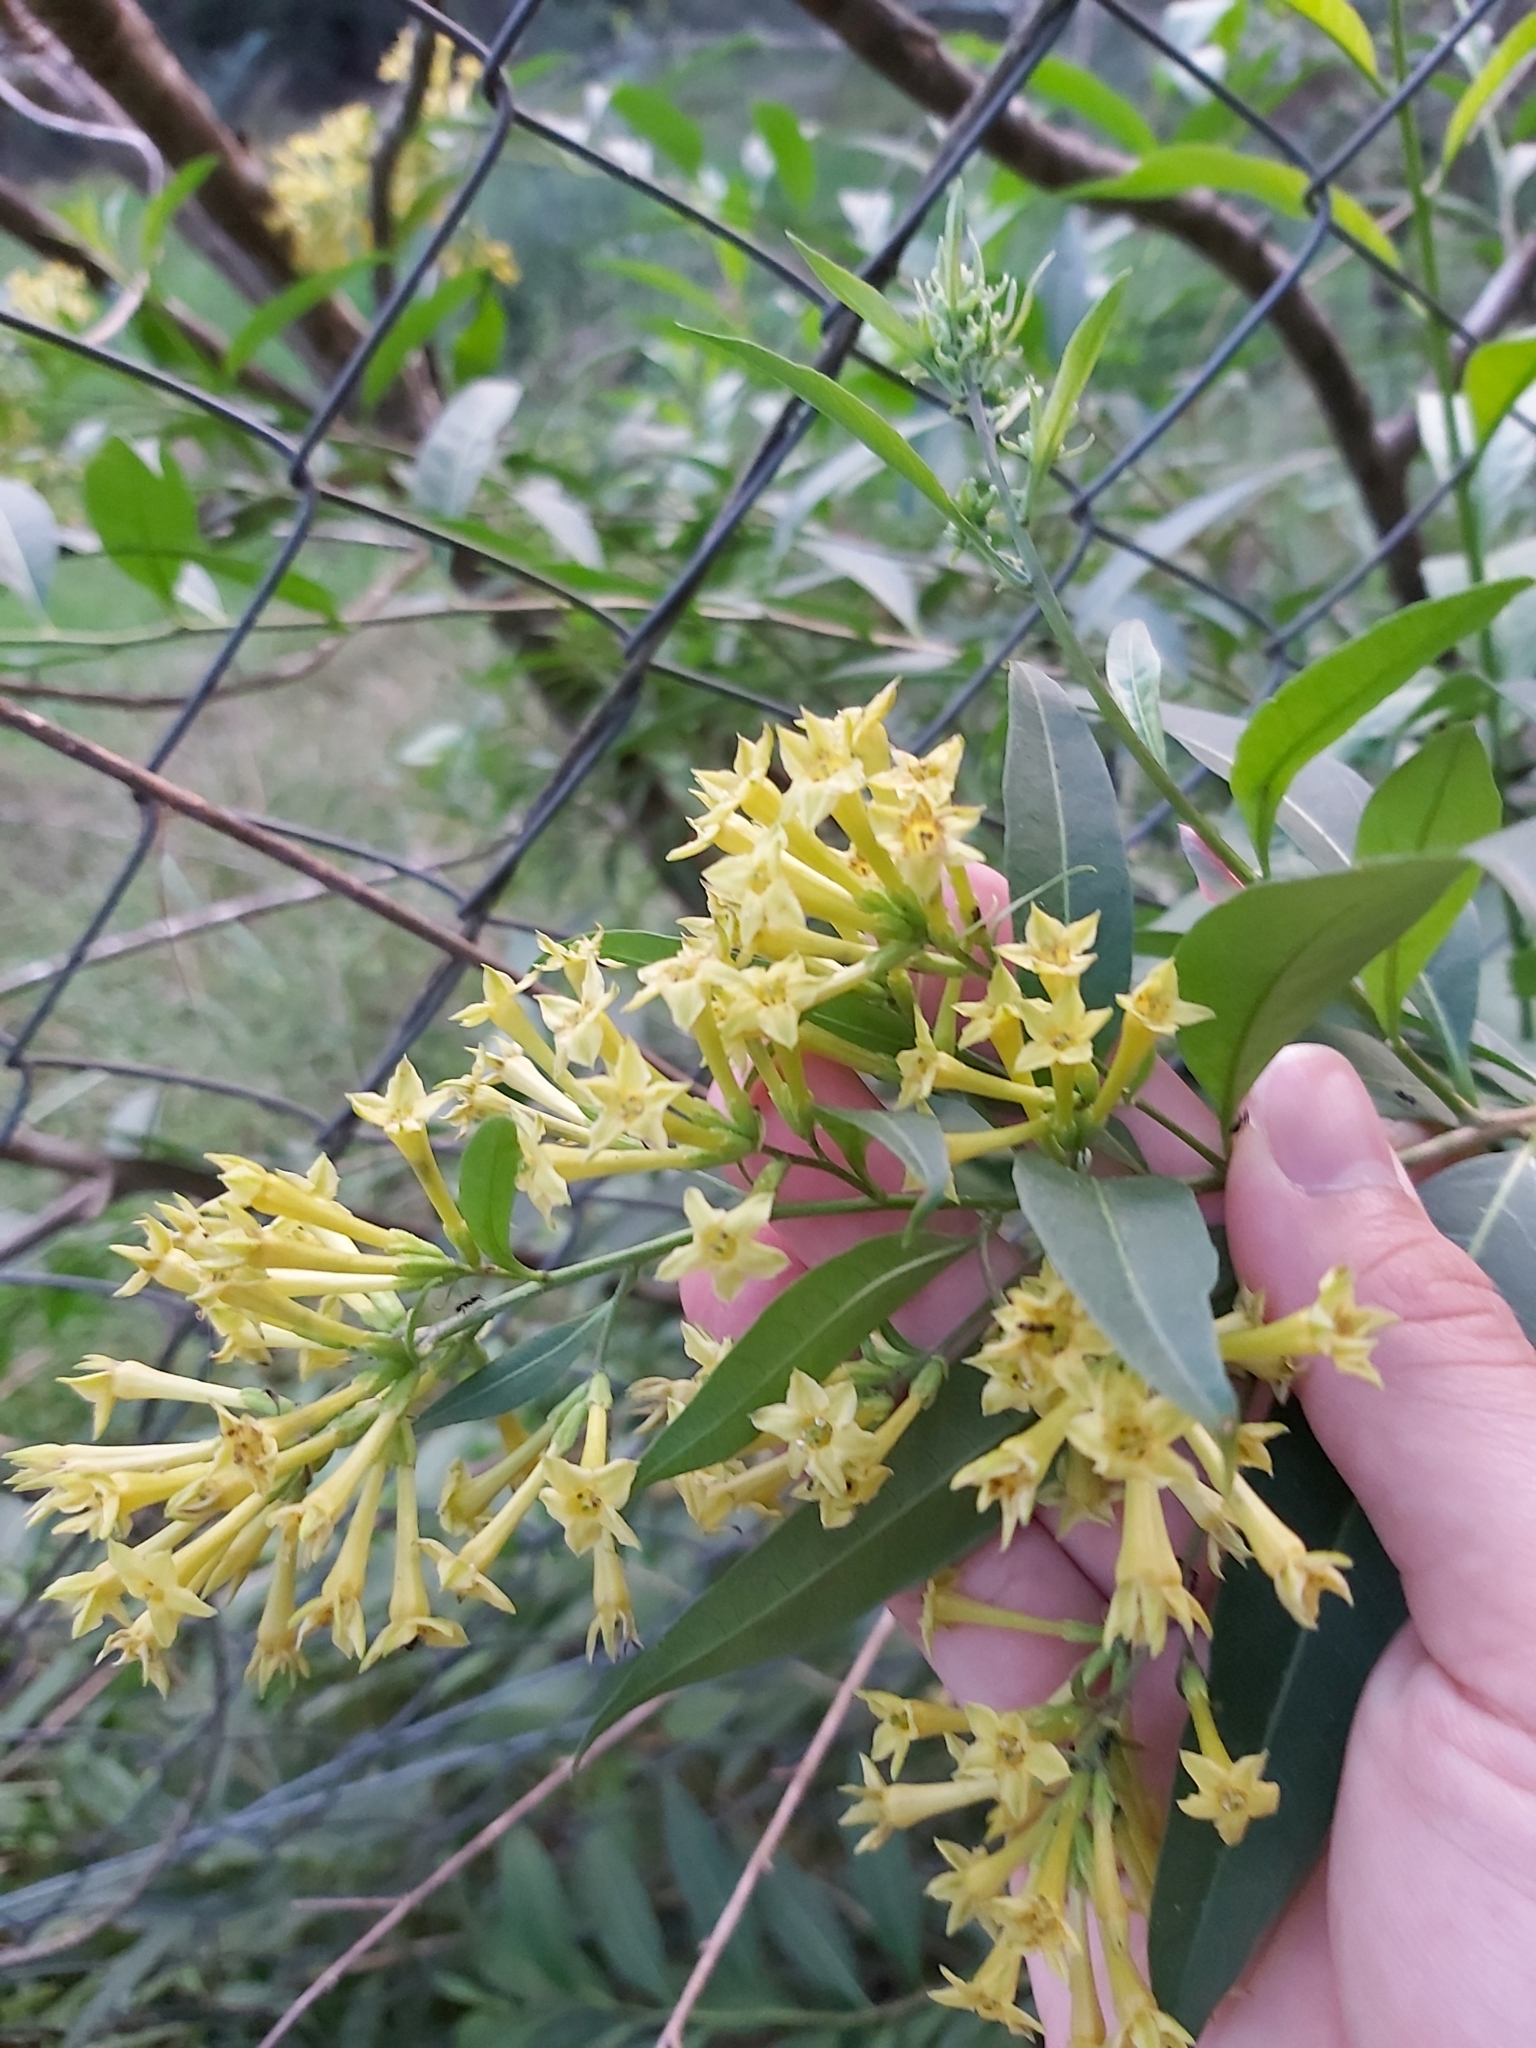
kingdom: Plantae
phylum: Tracheophyta
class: Magnoliopsida
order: Solanales
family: Solanaceae
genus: Cestrum
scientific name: Cestrum parqui
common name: Chilean cestrum
